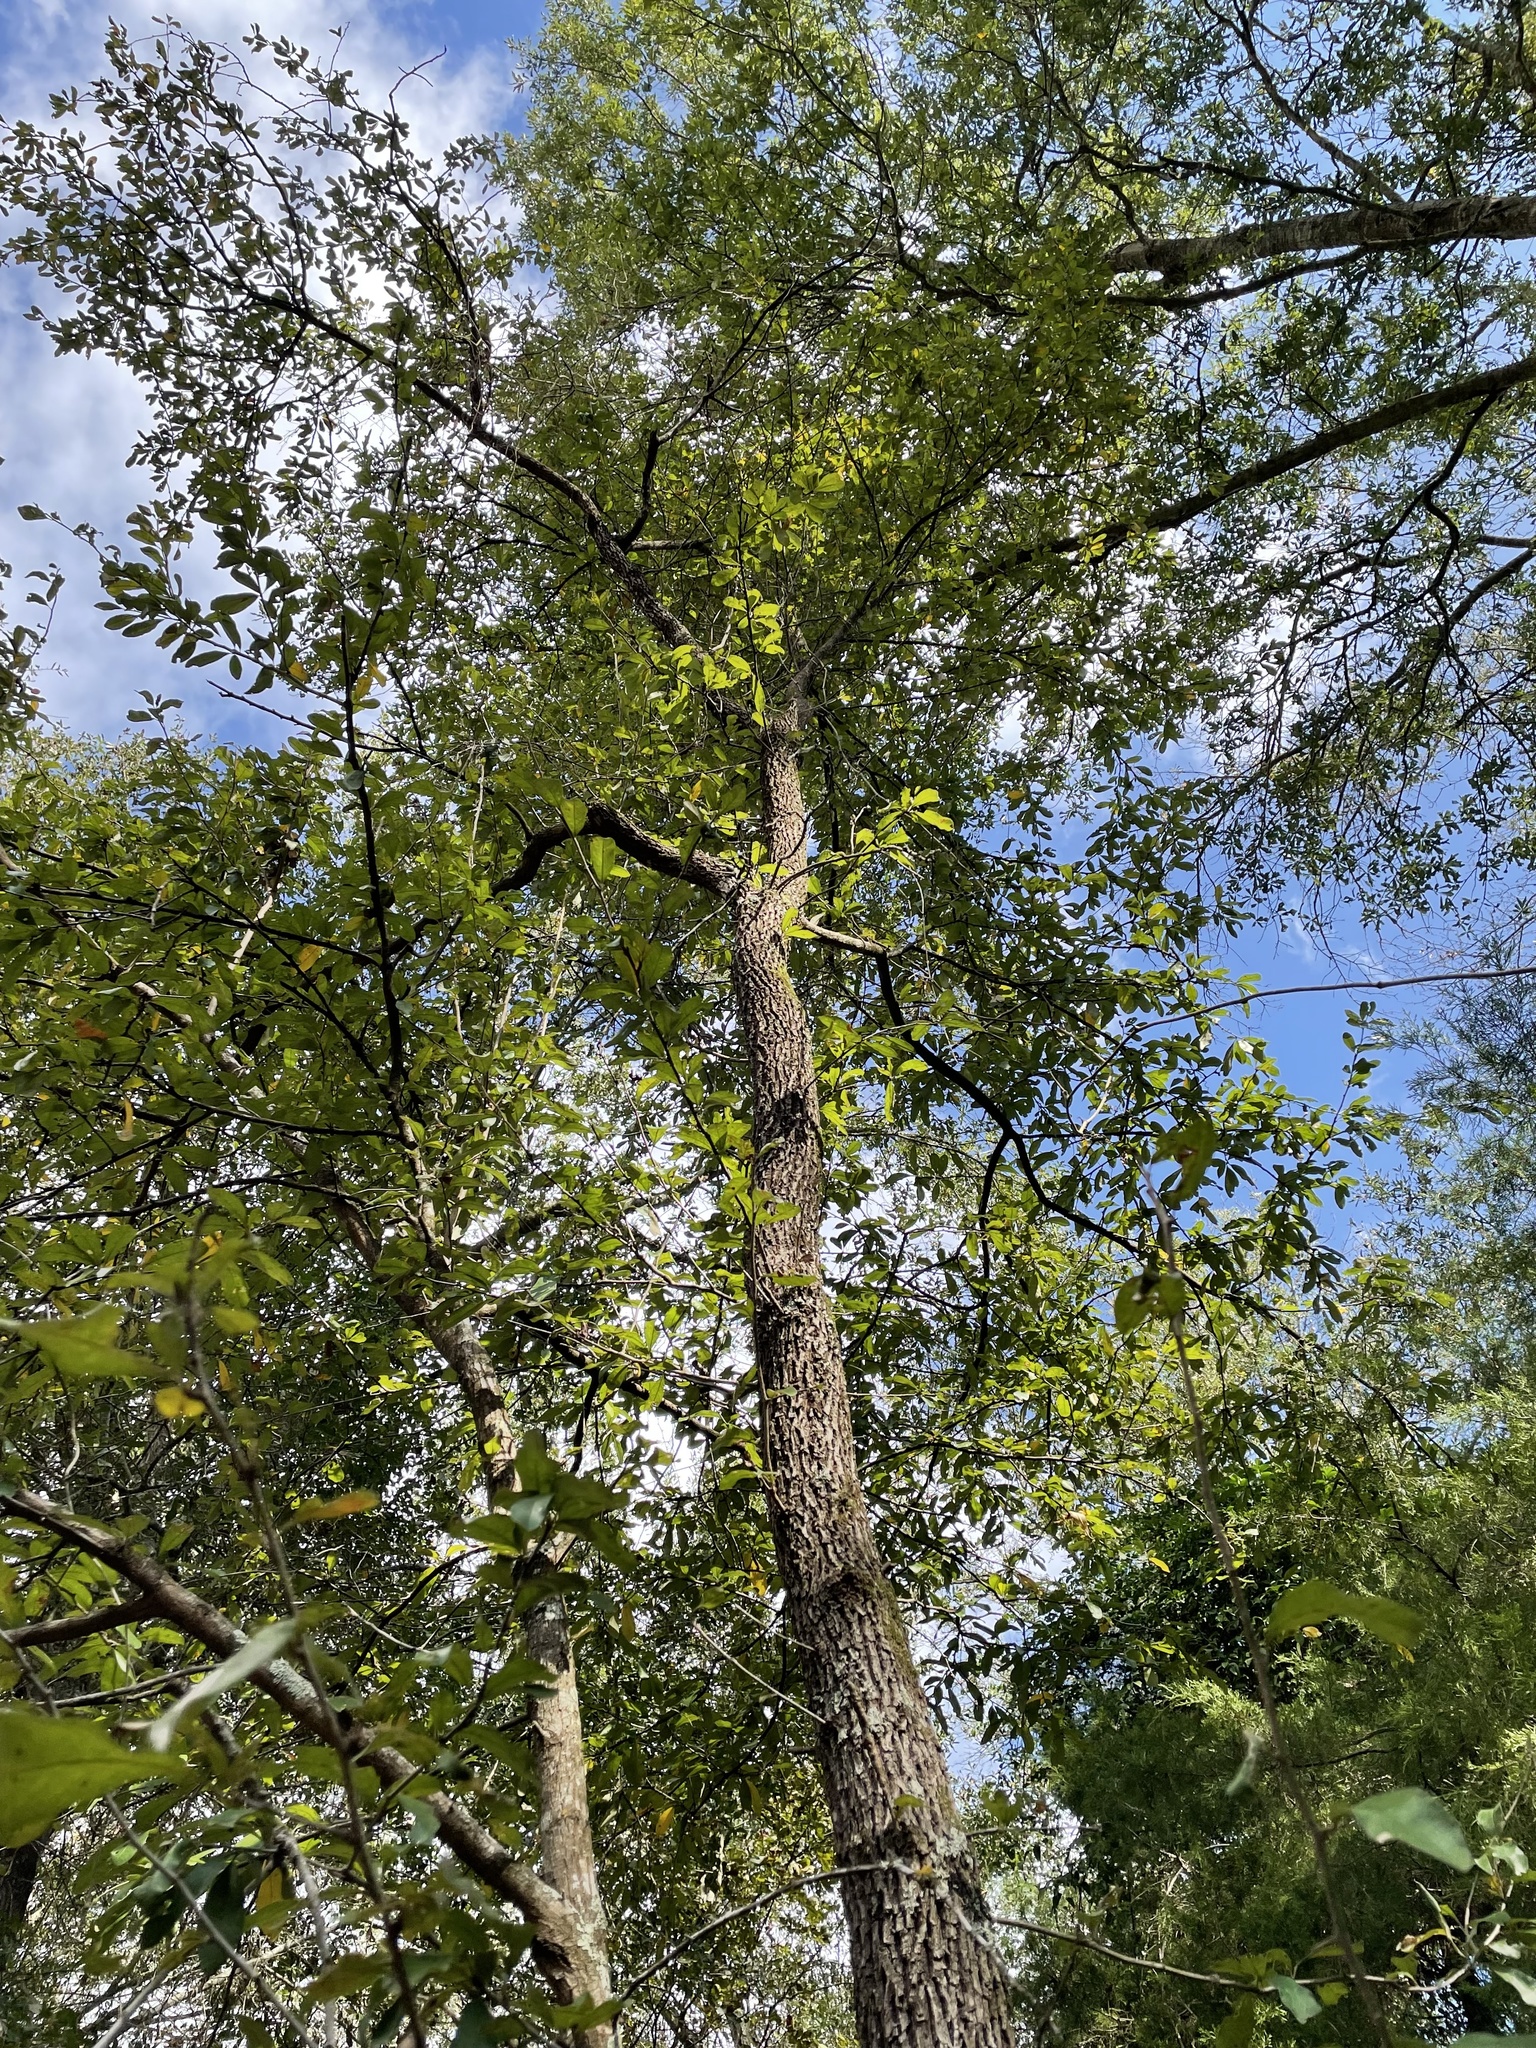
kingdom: Plantae
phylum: Tracheophyta
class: Magnoliopsida
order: Ericales
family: Sapotaceae
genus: Sideroxylon
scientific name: Sideroxylon lanuginosum
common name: Chittamwood
